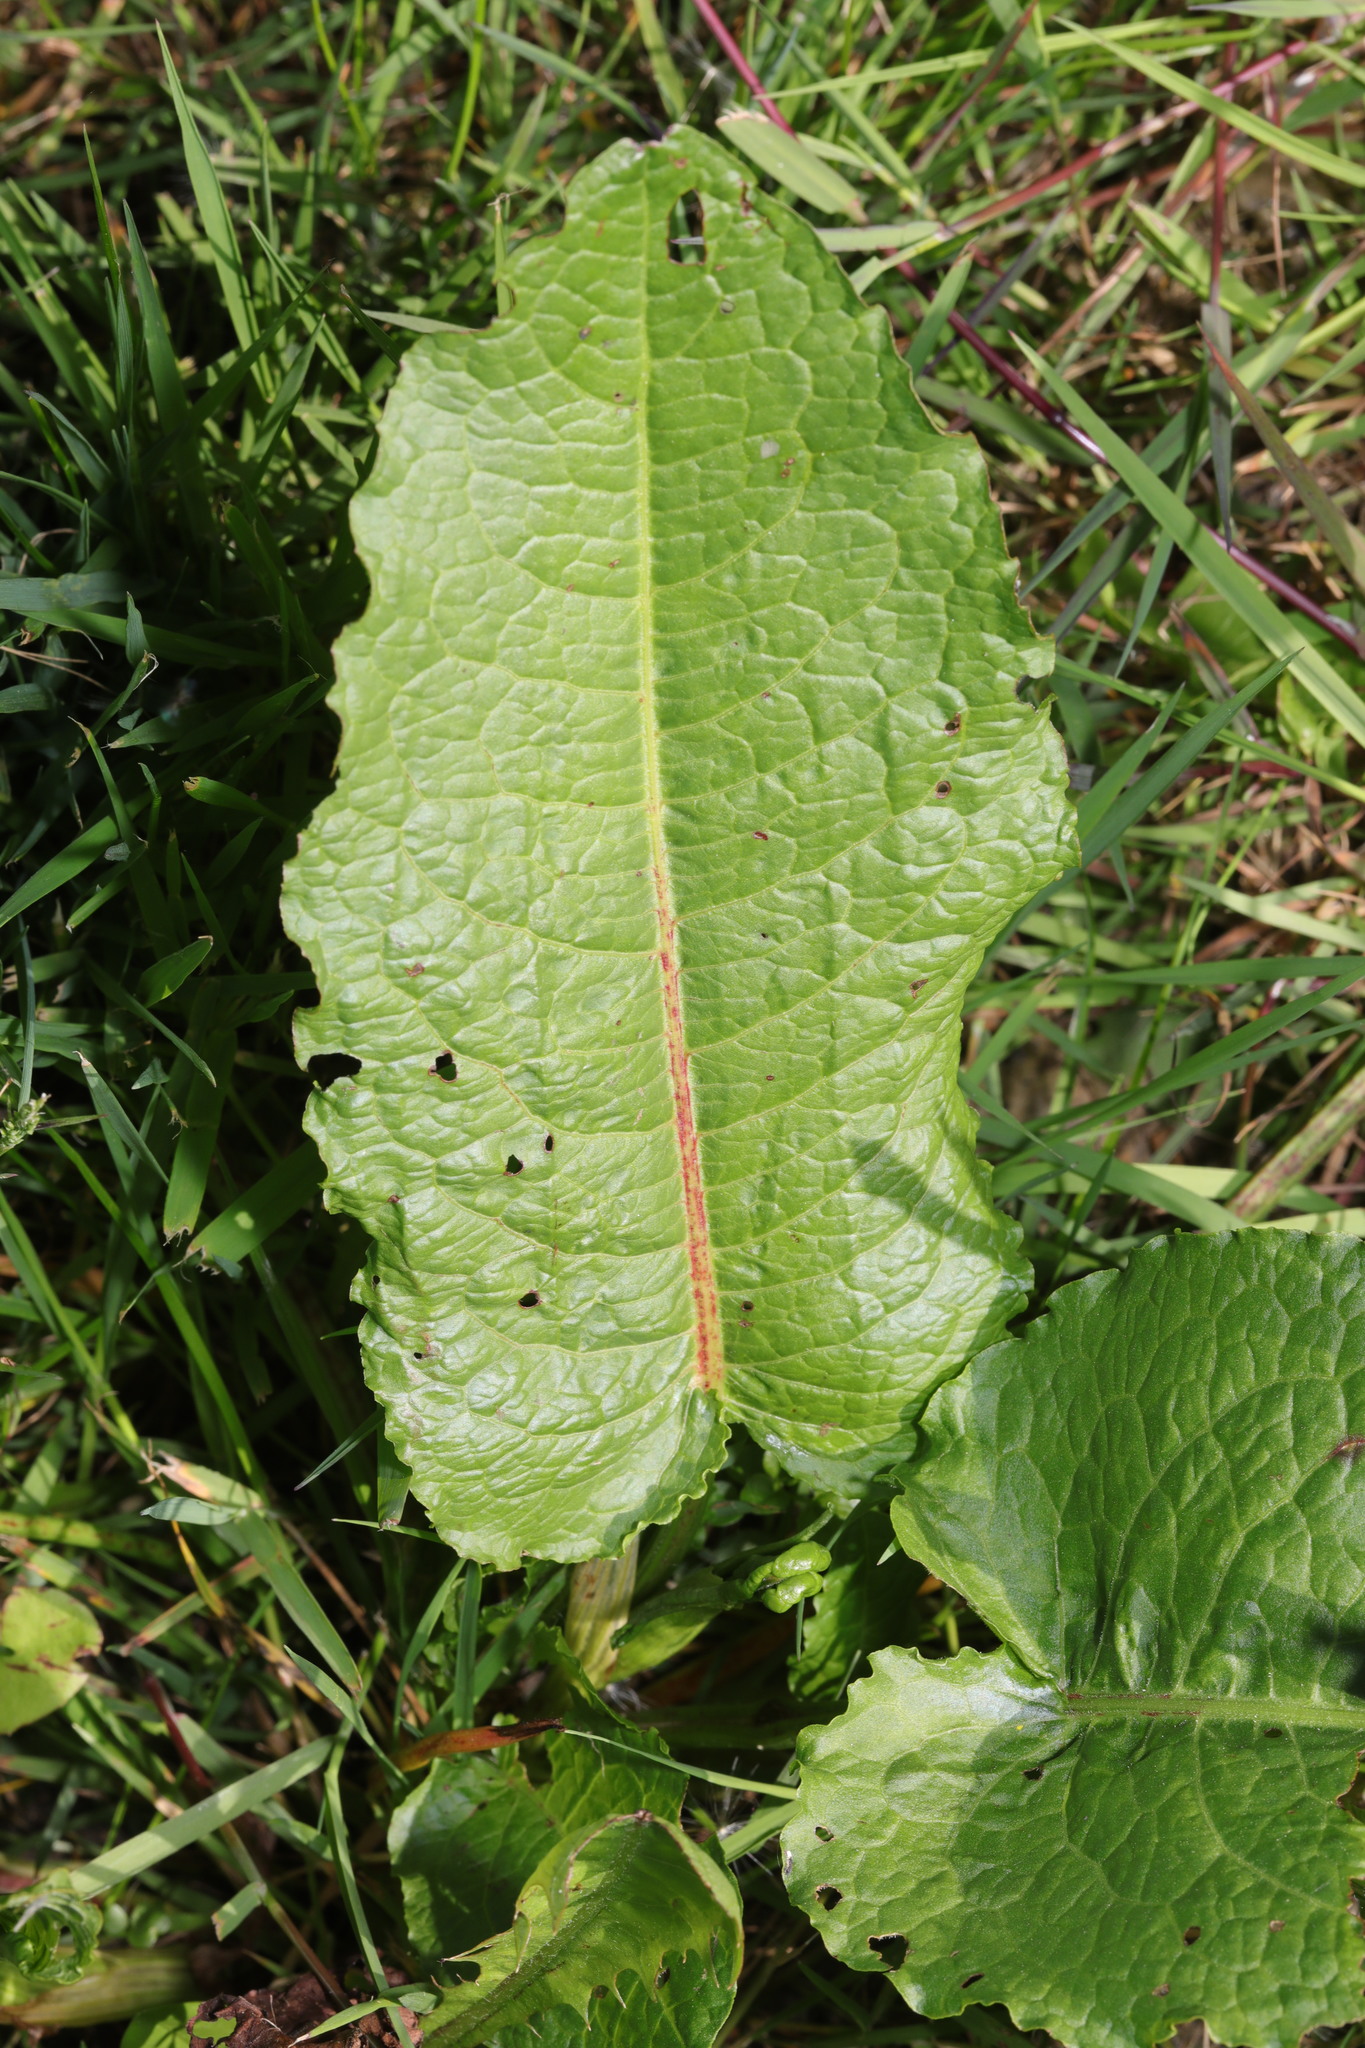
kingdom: Plantae
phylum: Tracheophyta
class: Magnoliopsida
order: Caryophyllales
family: Polygonaceae
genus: Rumex
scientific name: Rumex obtusifolius
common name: Bitter dock
